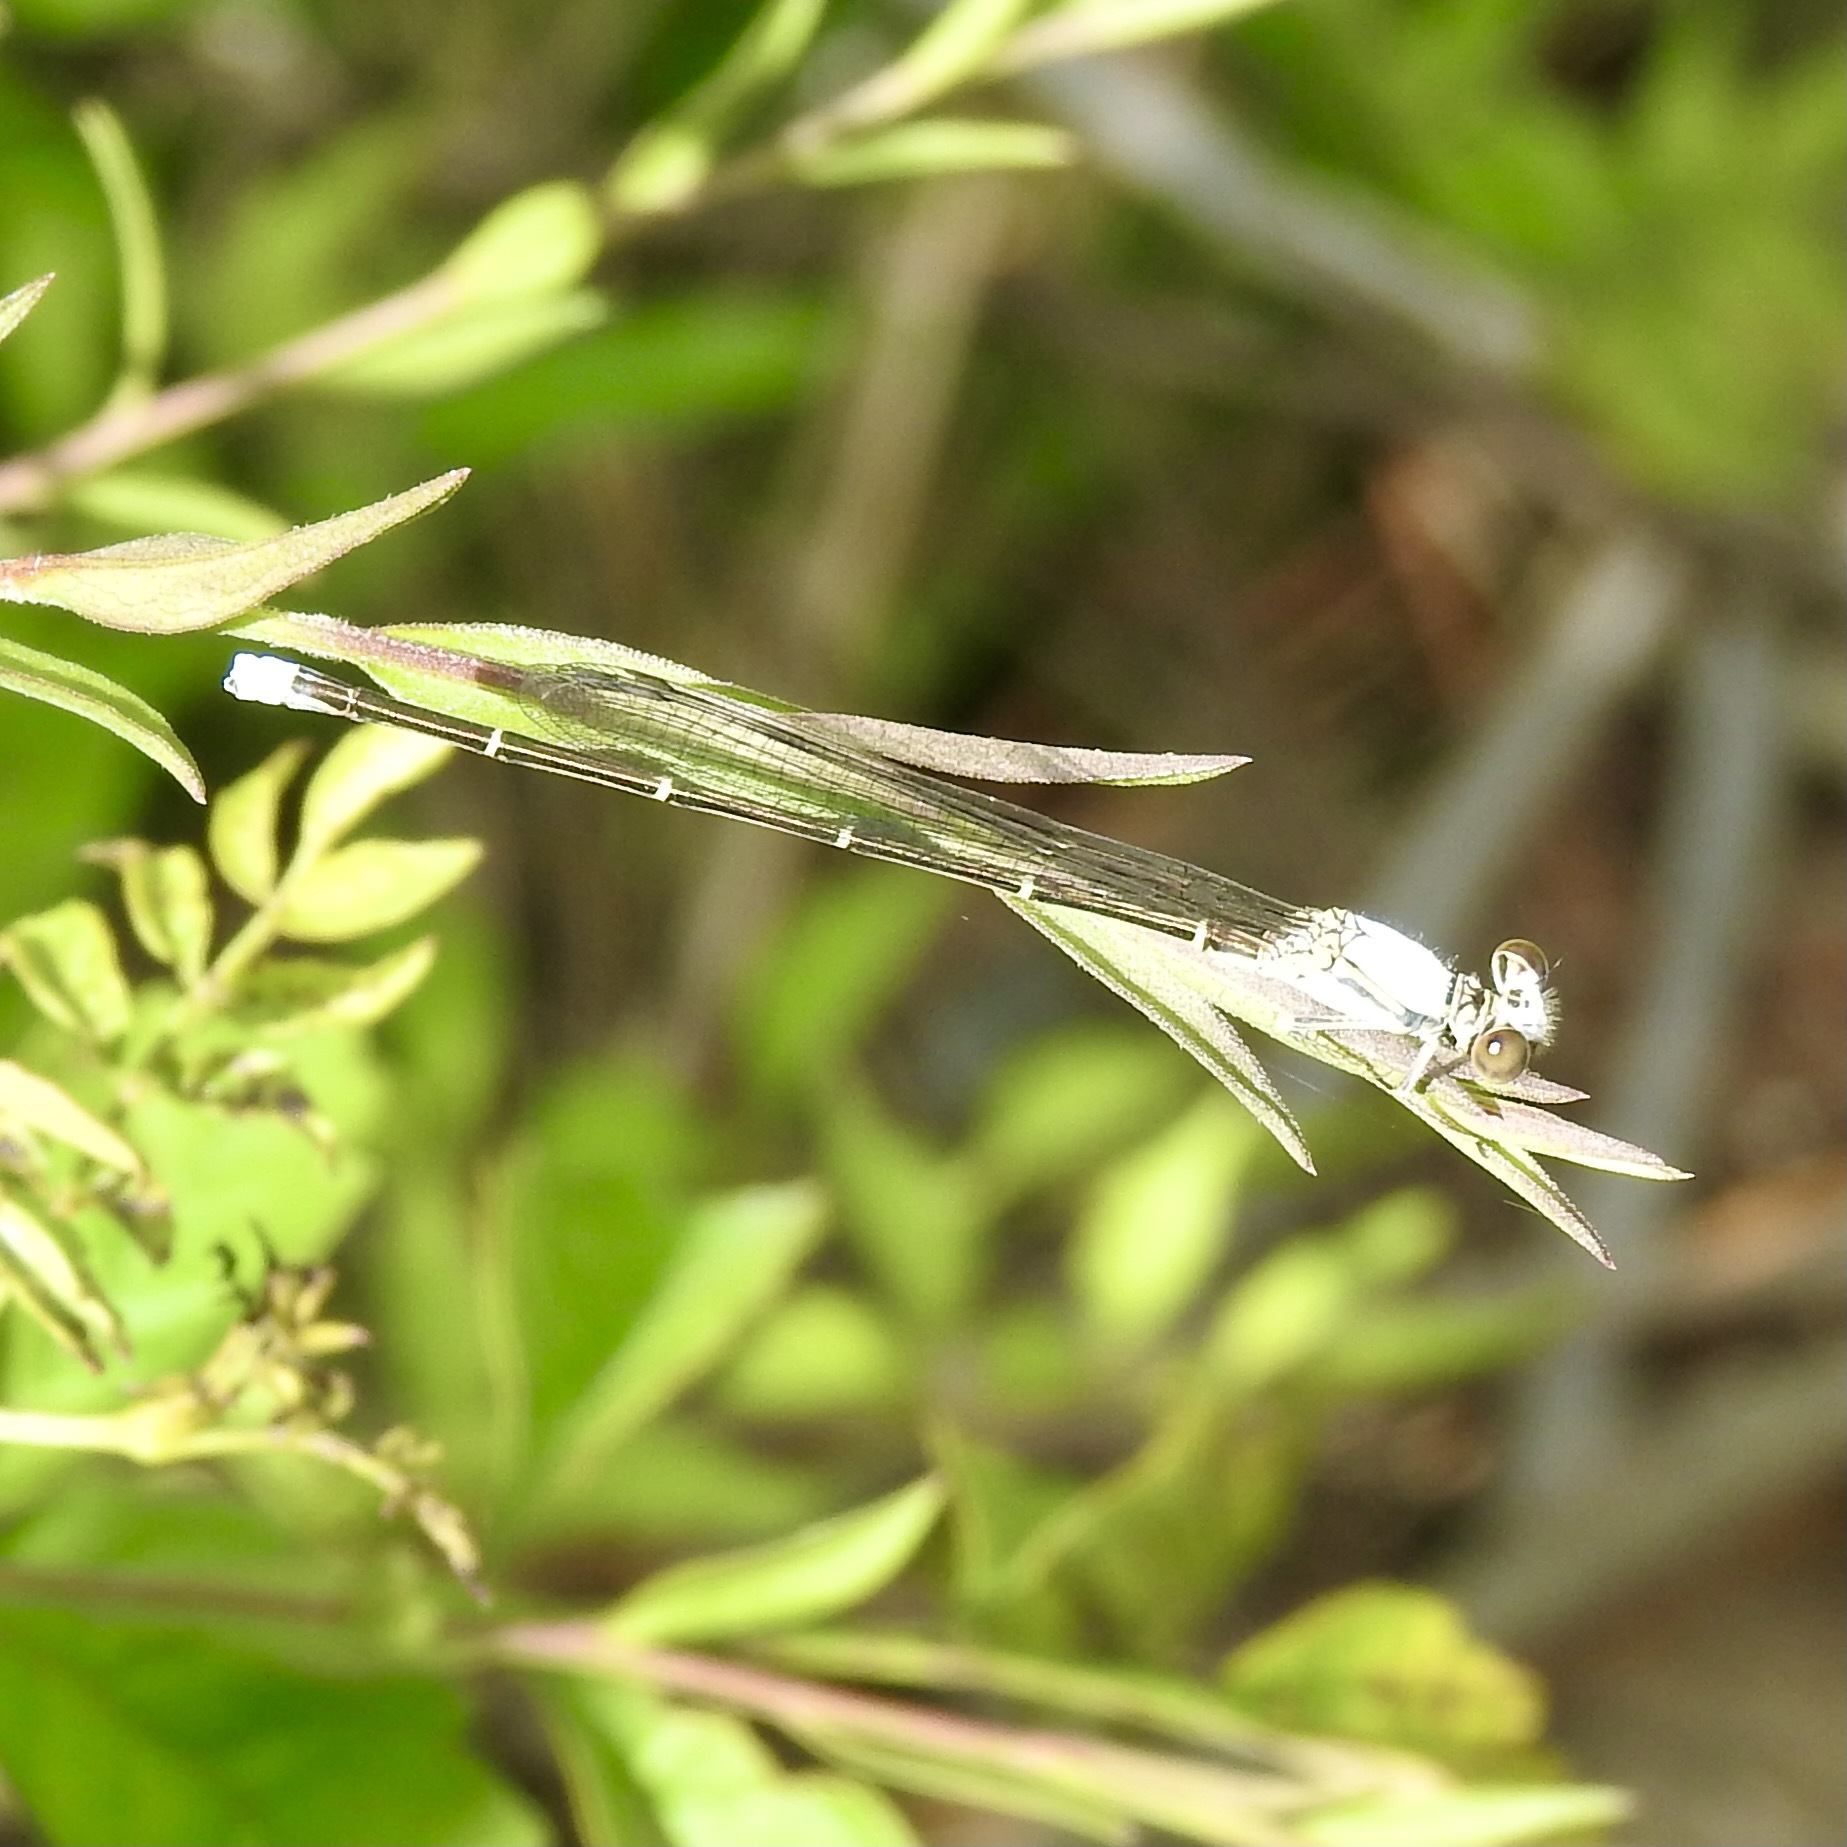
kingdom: Animalia
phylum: Arthropoda
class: Insecta
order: Odonata
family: Coenagrionidae
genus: Argia
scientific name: Argia moesta
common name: Powdered dancer
